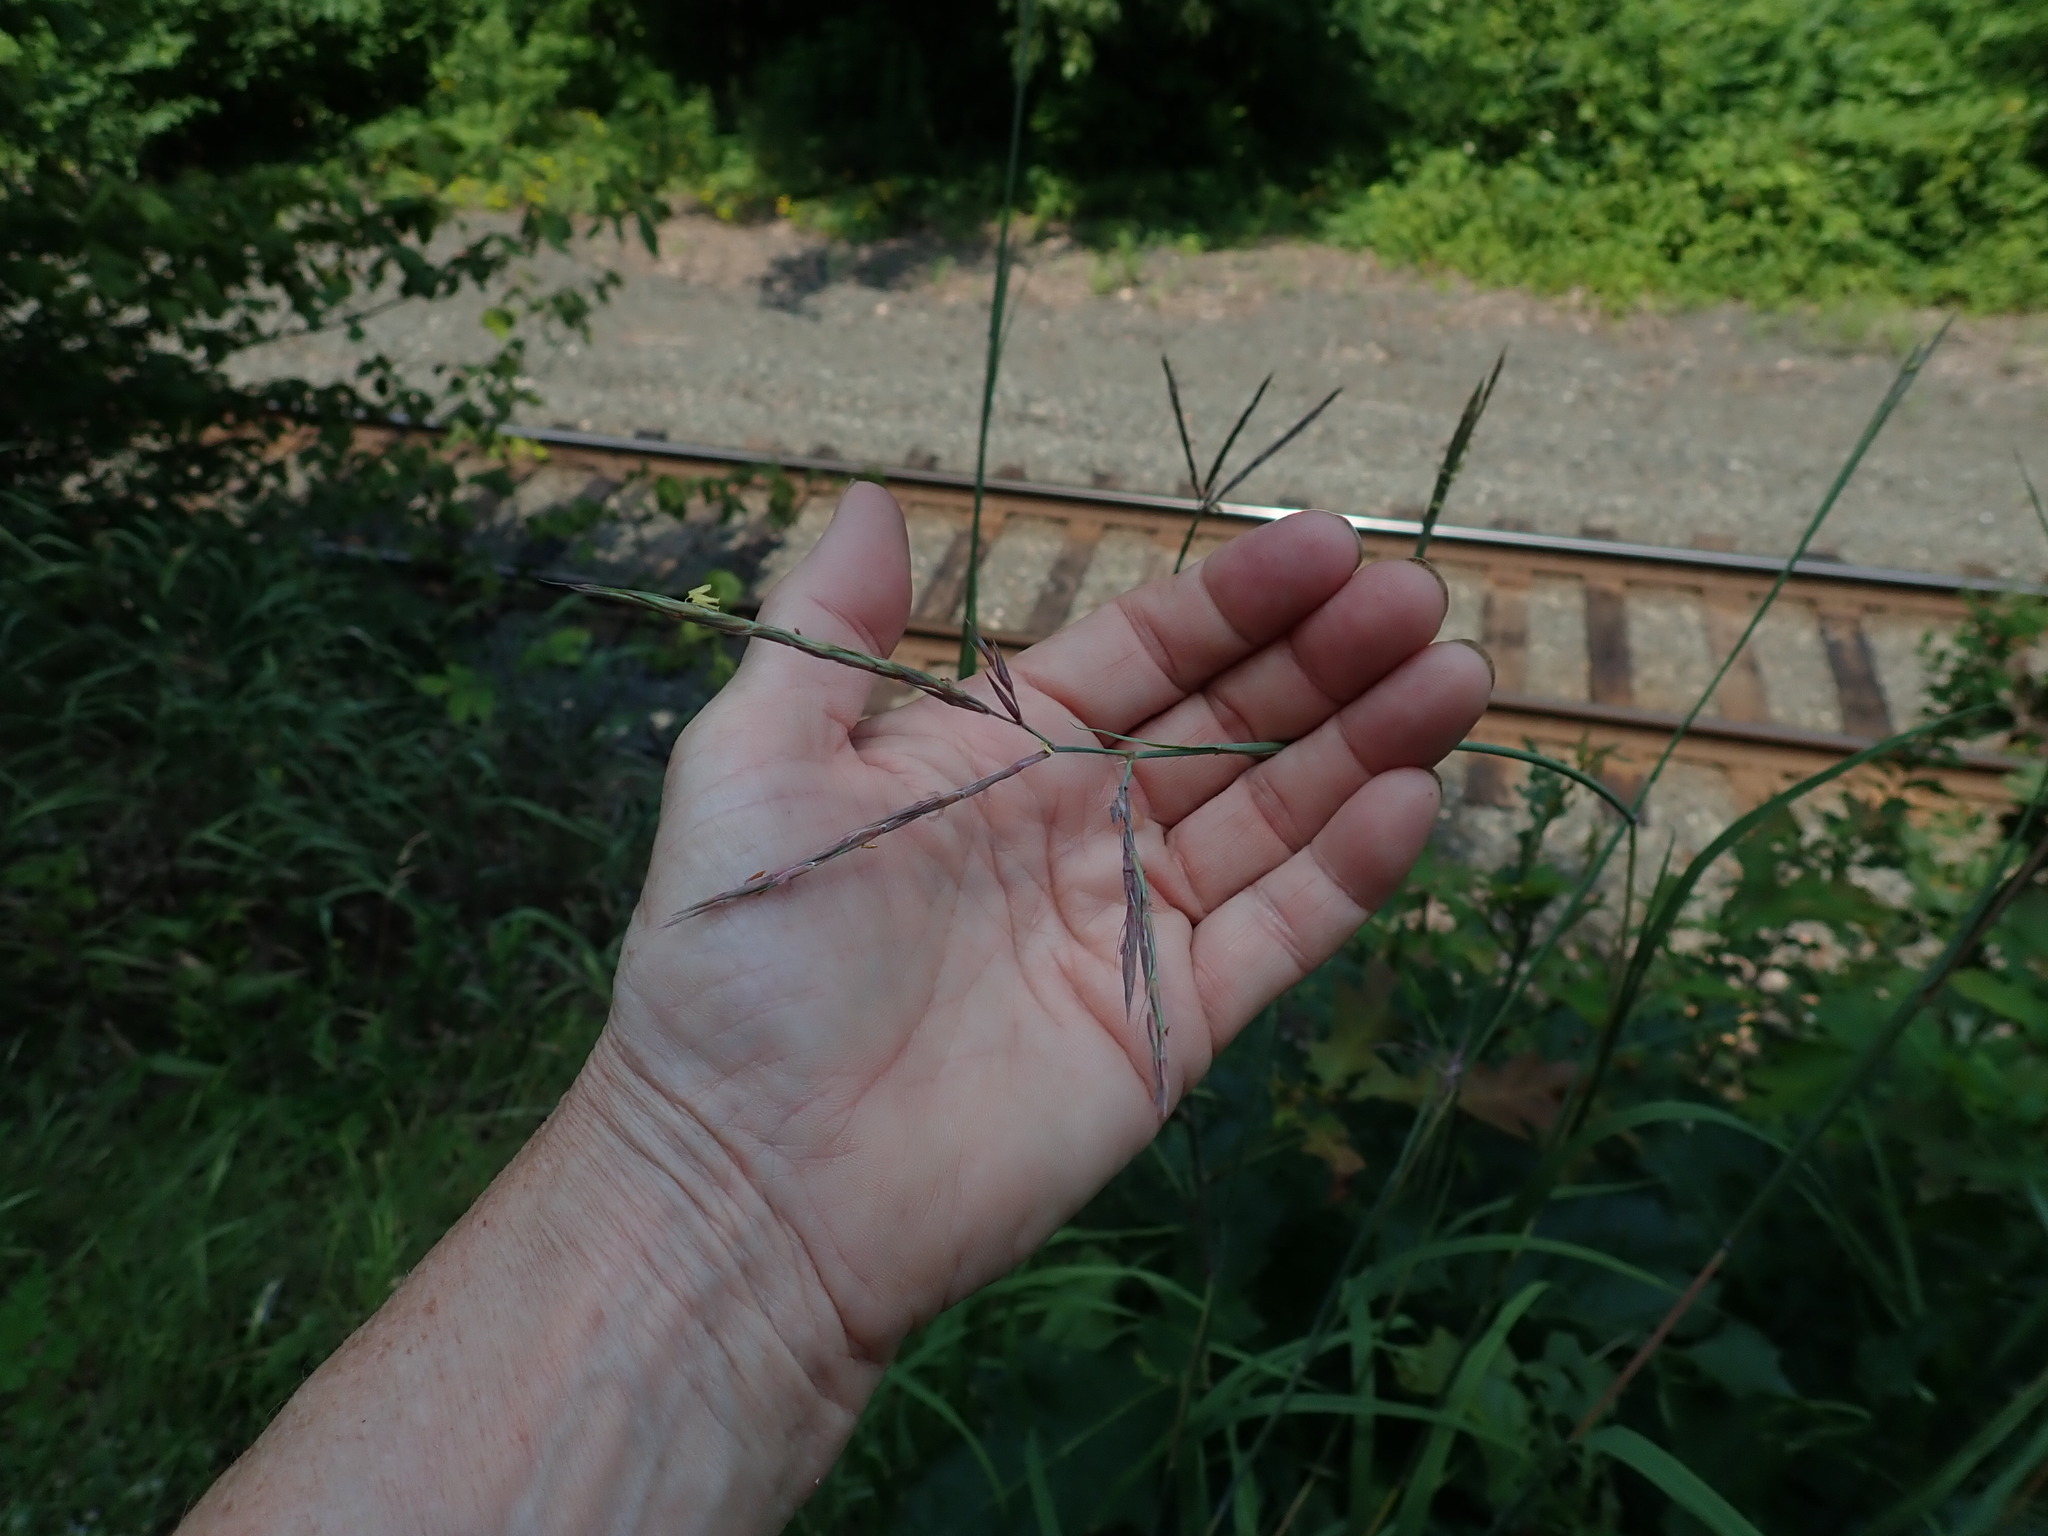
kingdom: Plantae
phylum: Tracheophyta
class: Liliopsida
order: Poales
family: Poaceae
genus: Andropogon
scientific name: Andropogon gerardi
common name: Big bluestem
